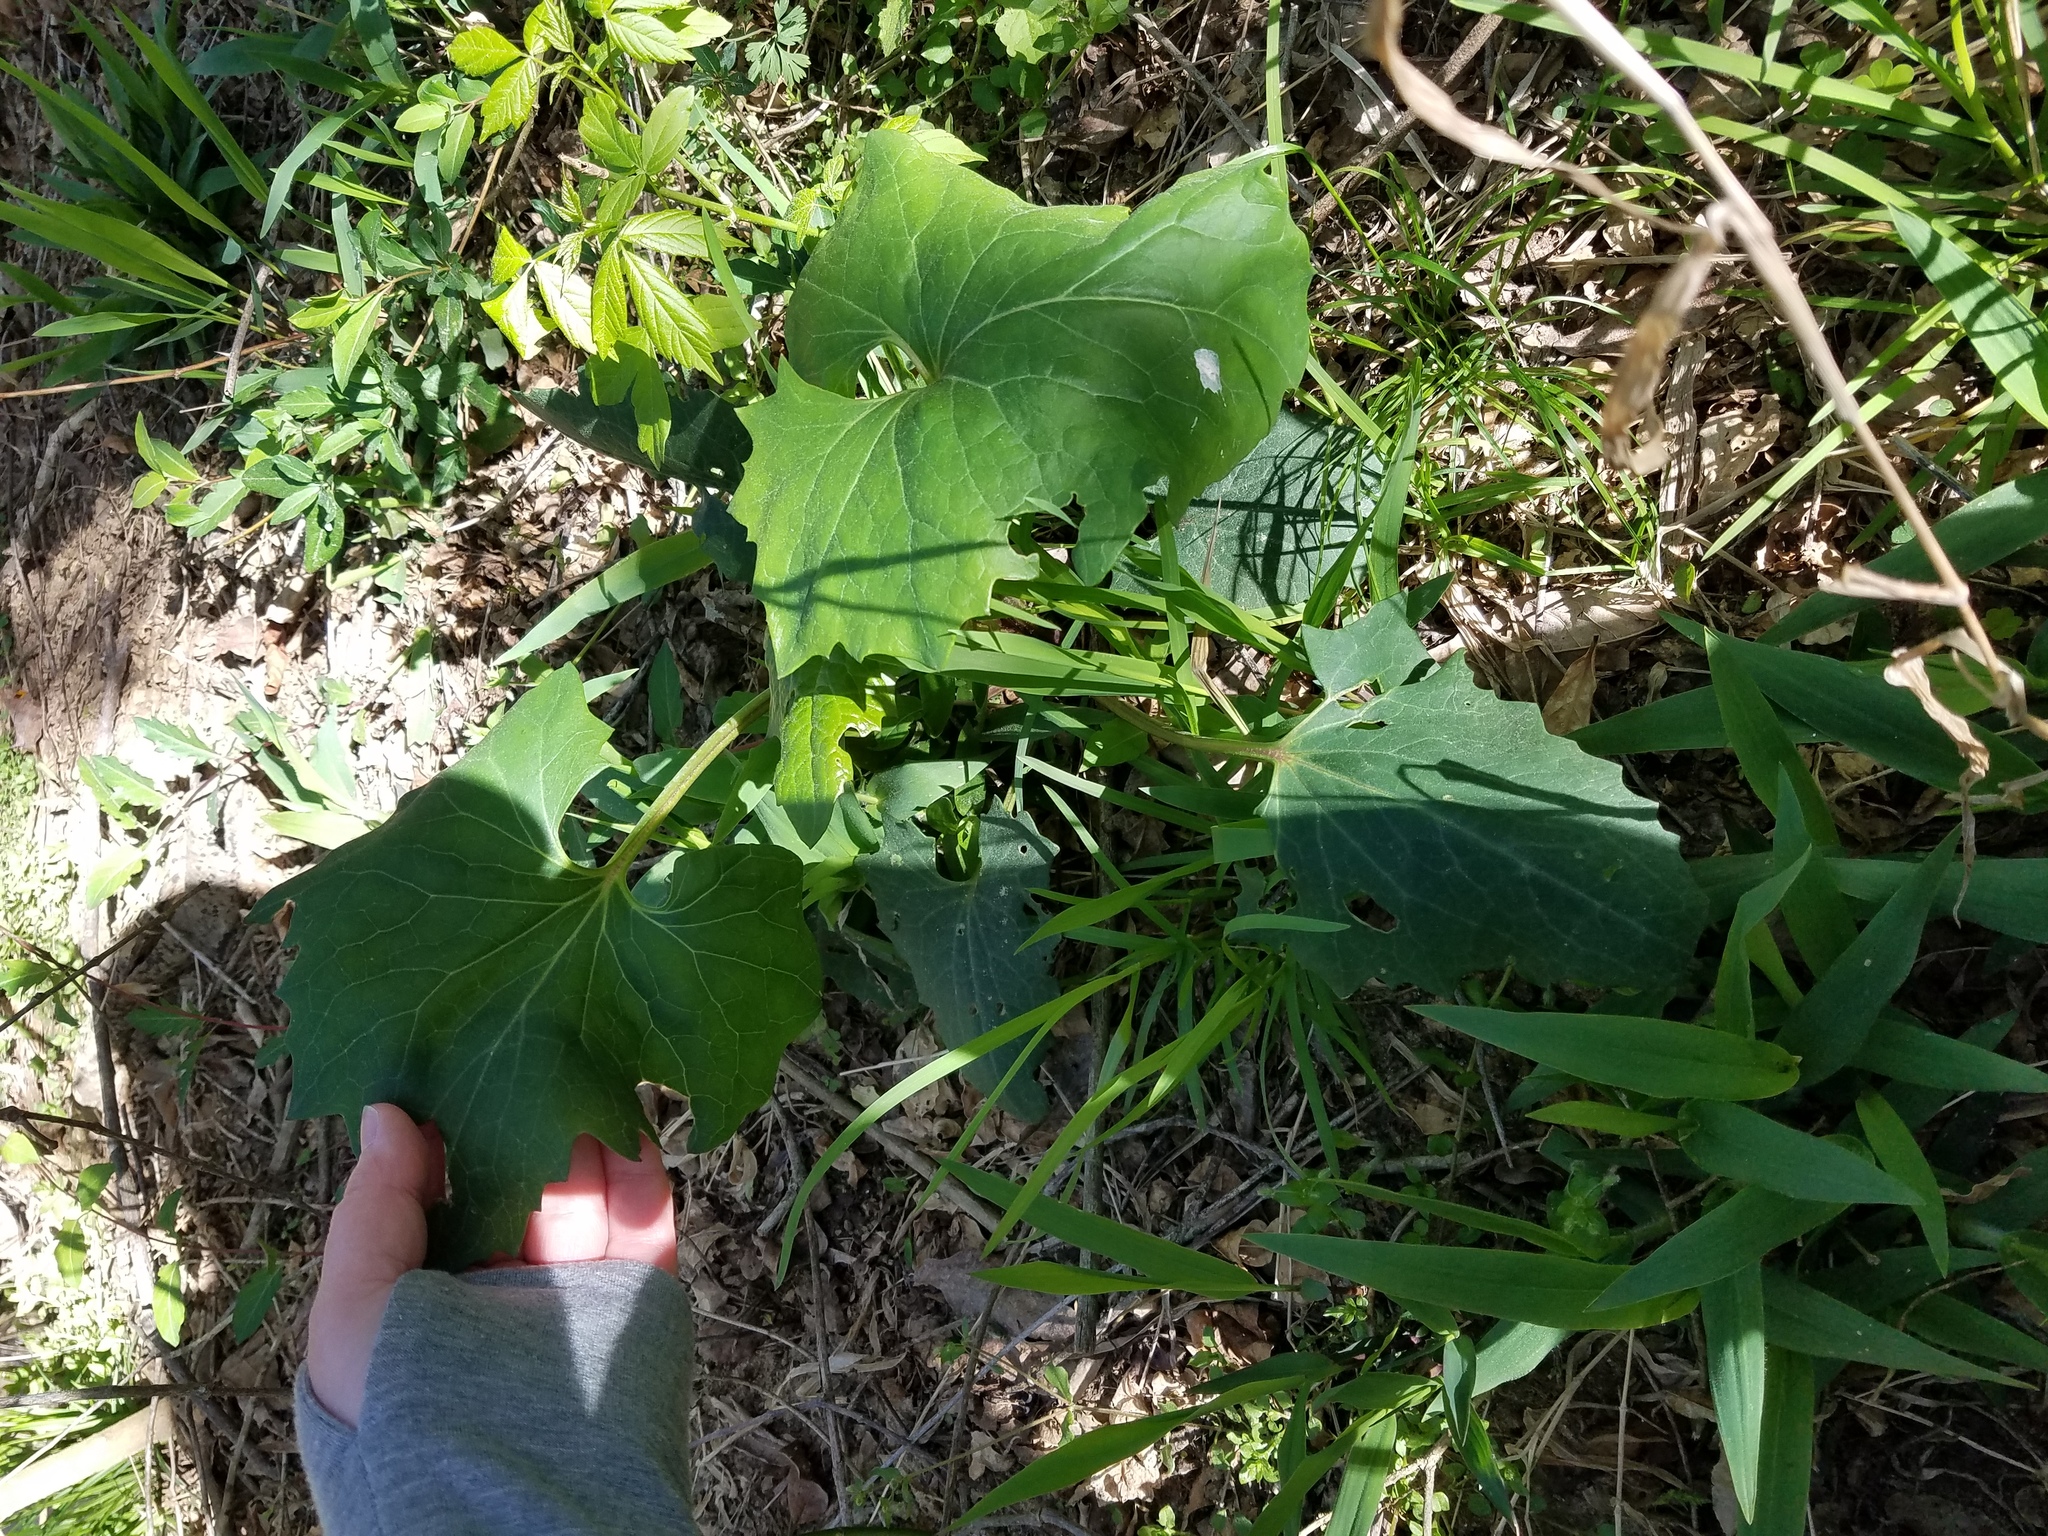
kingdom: Plantae
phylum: Tracheophyta
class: Magnoliopsida
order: Asterales
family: Asteraceae
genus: Arnoglossum
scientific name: Arnoglossum atriplicifolium
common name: Pale indian-plantain
